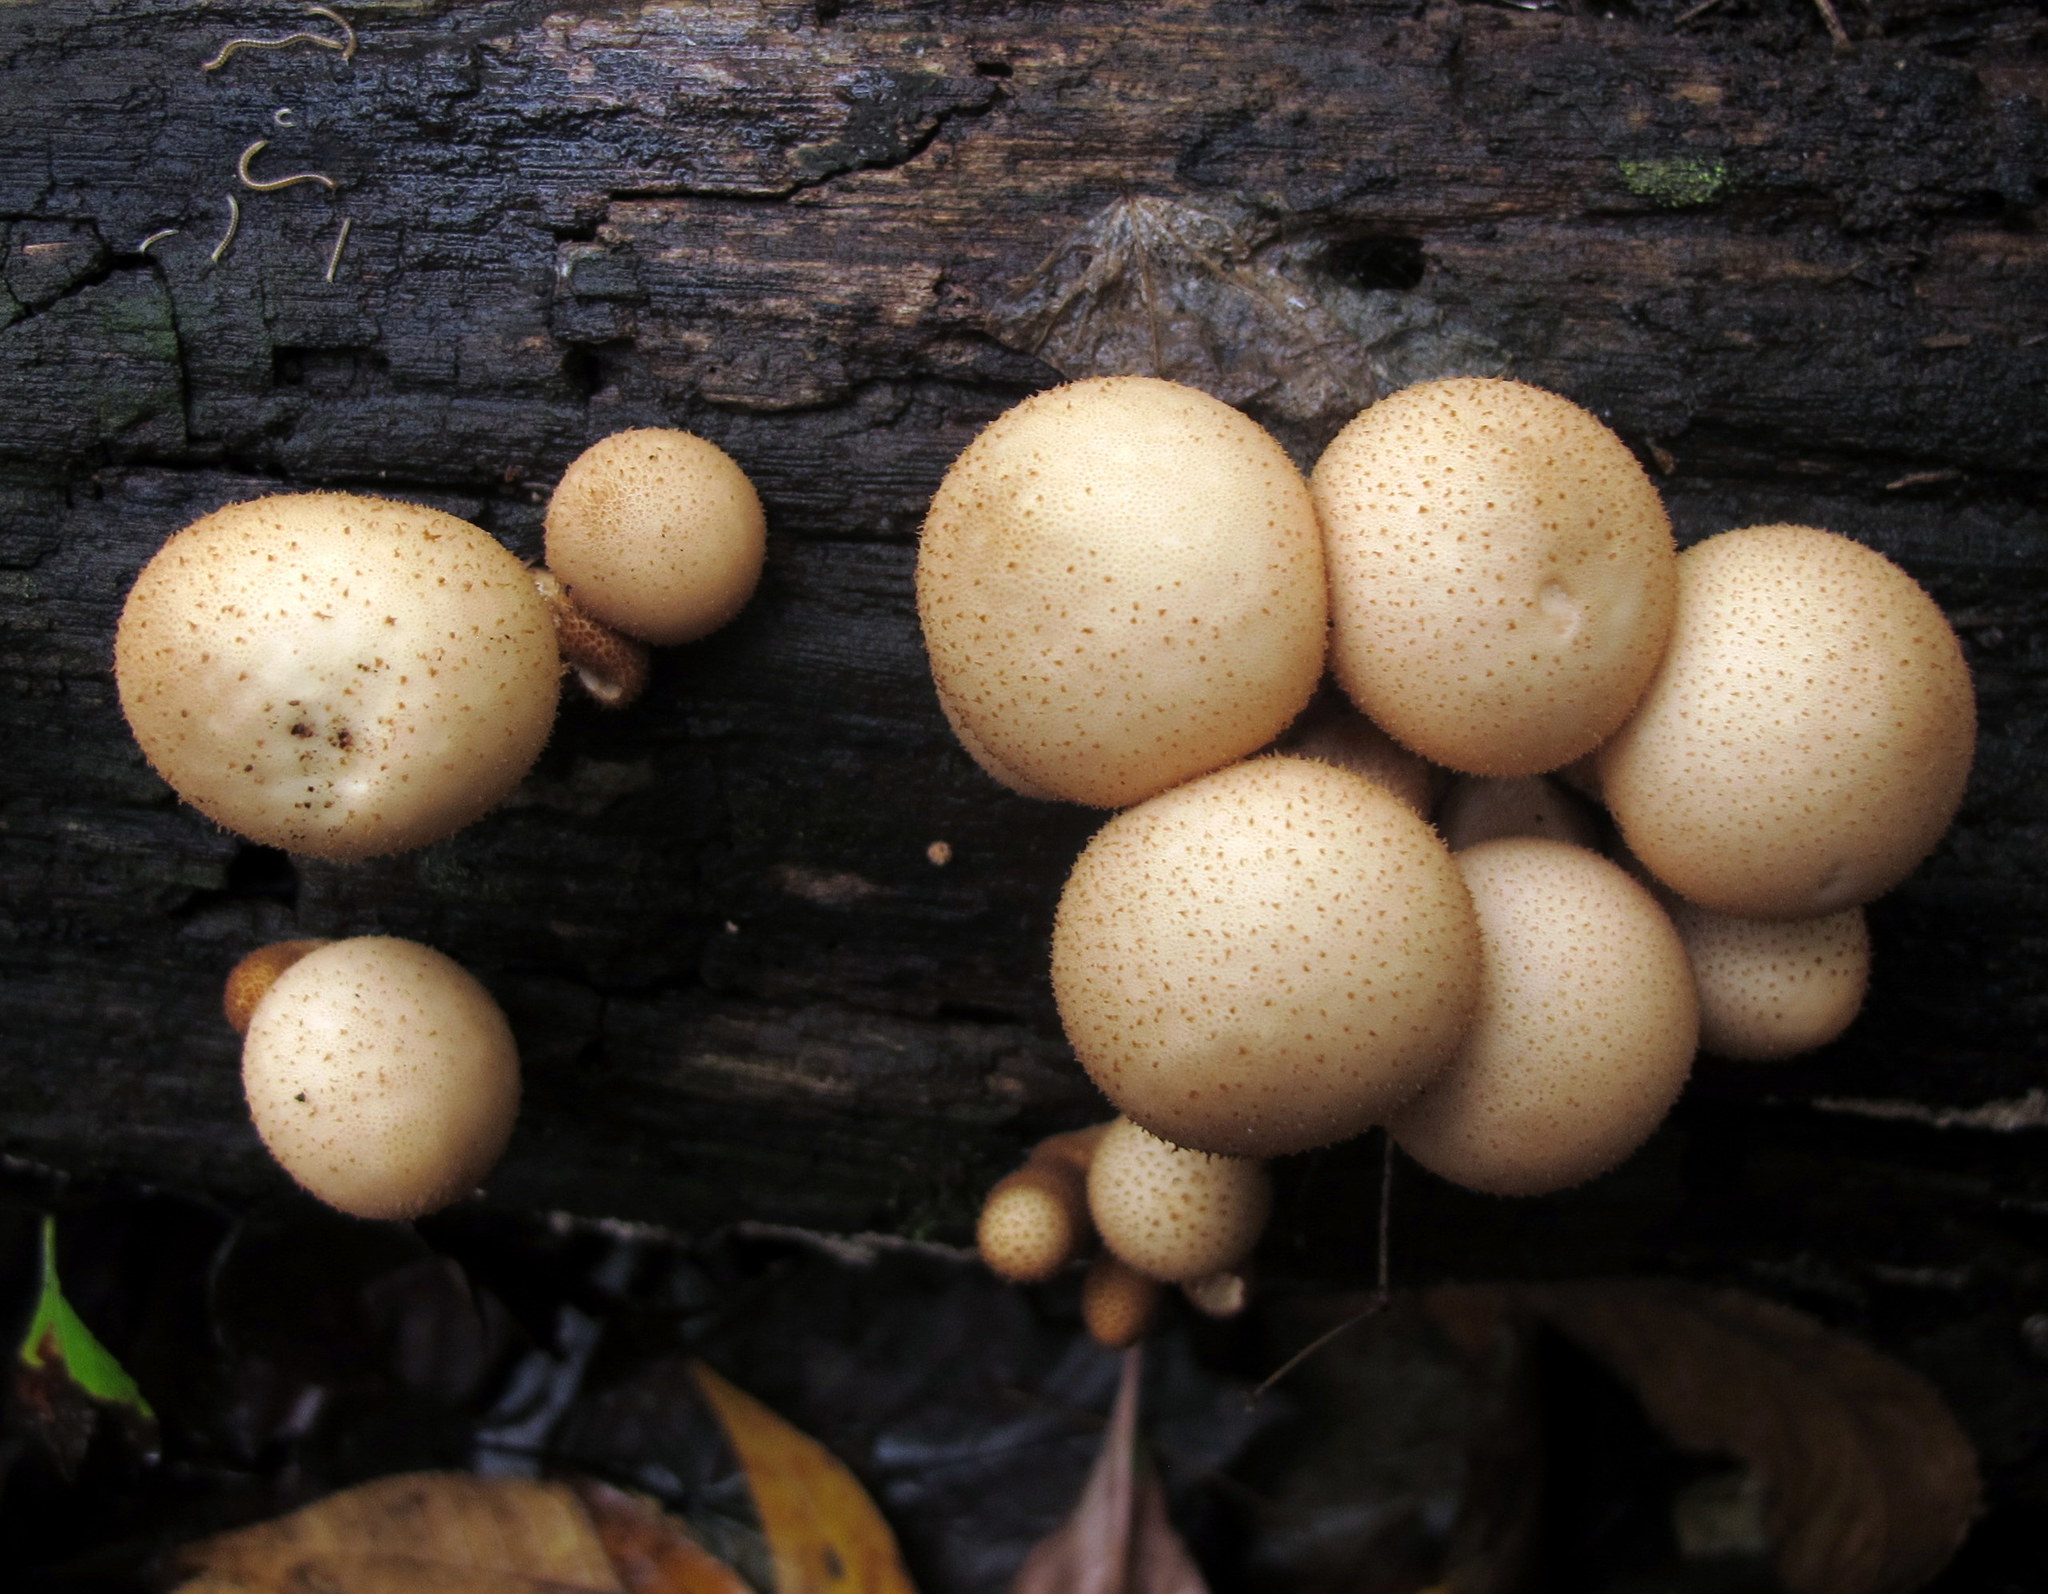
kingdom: Fungi
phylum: Basidiomycota
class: Agaricomycetes
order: Agaricales
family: Lycoperdaceae
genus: Apioperdon
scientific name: Apioperdon pyriforme
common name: Pear-shaped puffball
